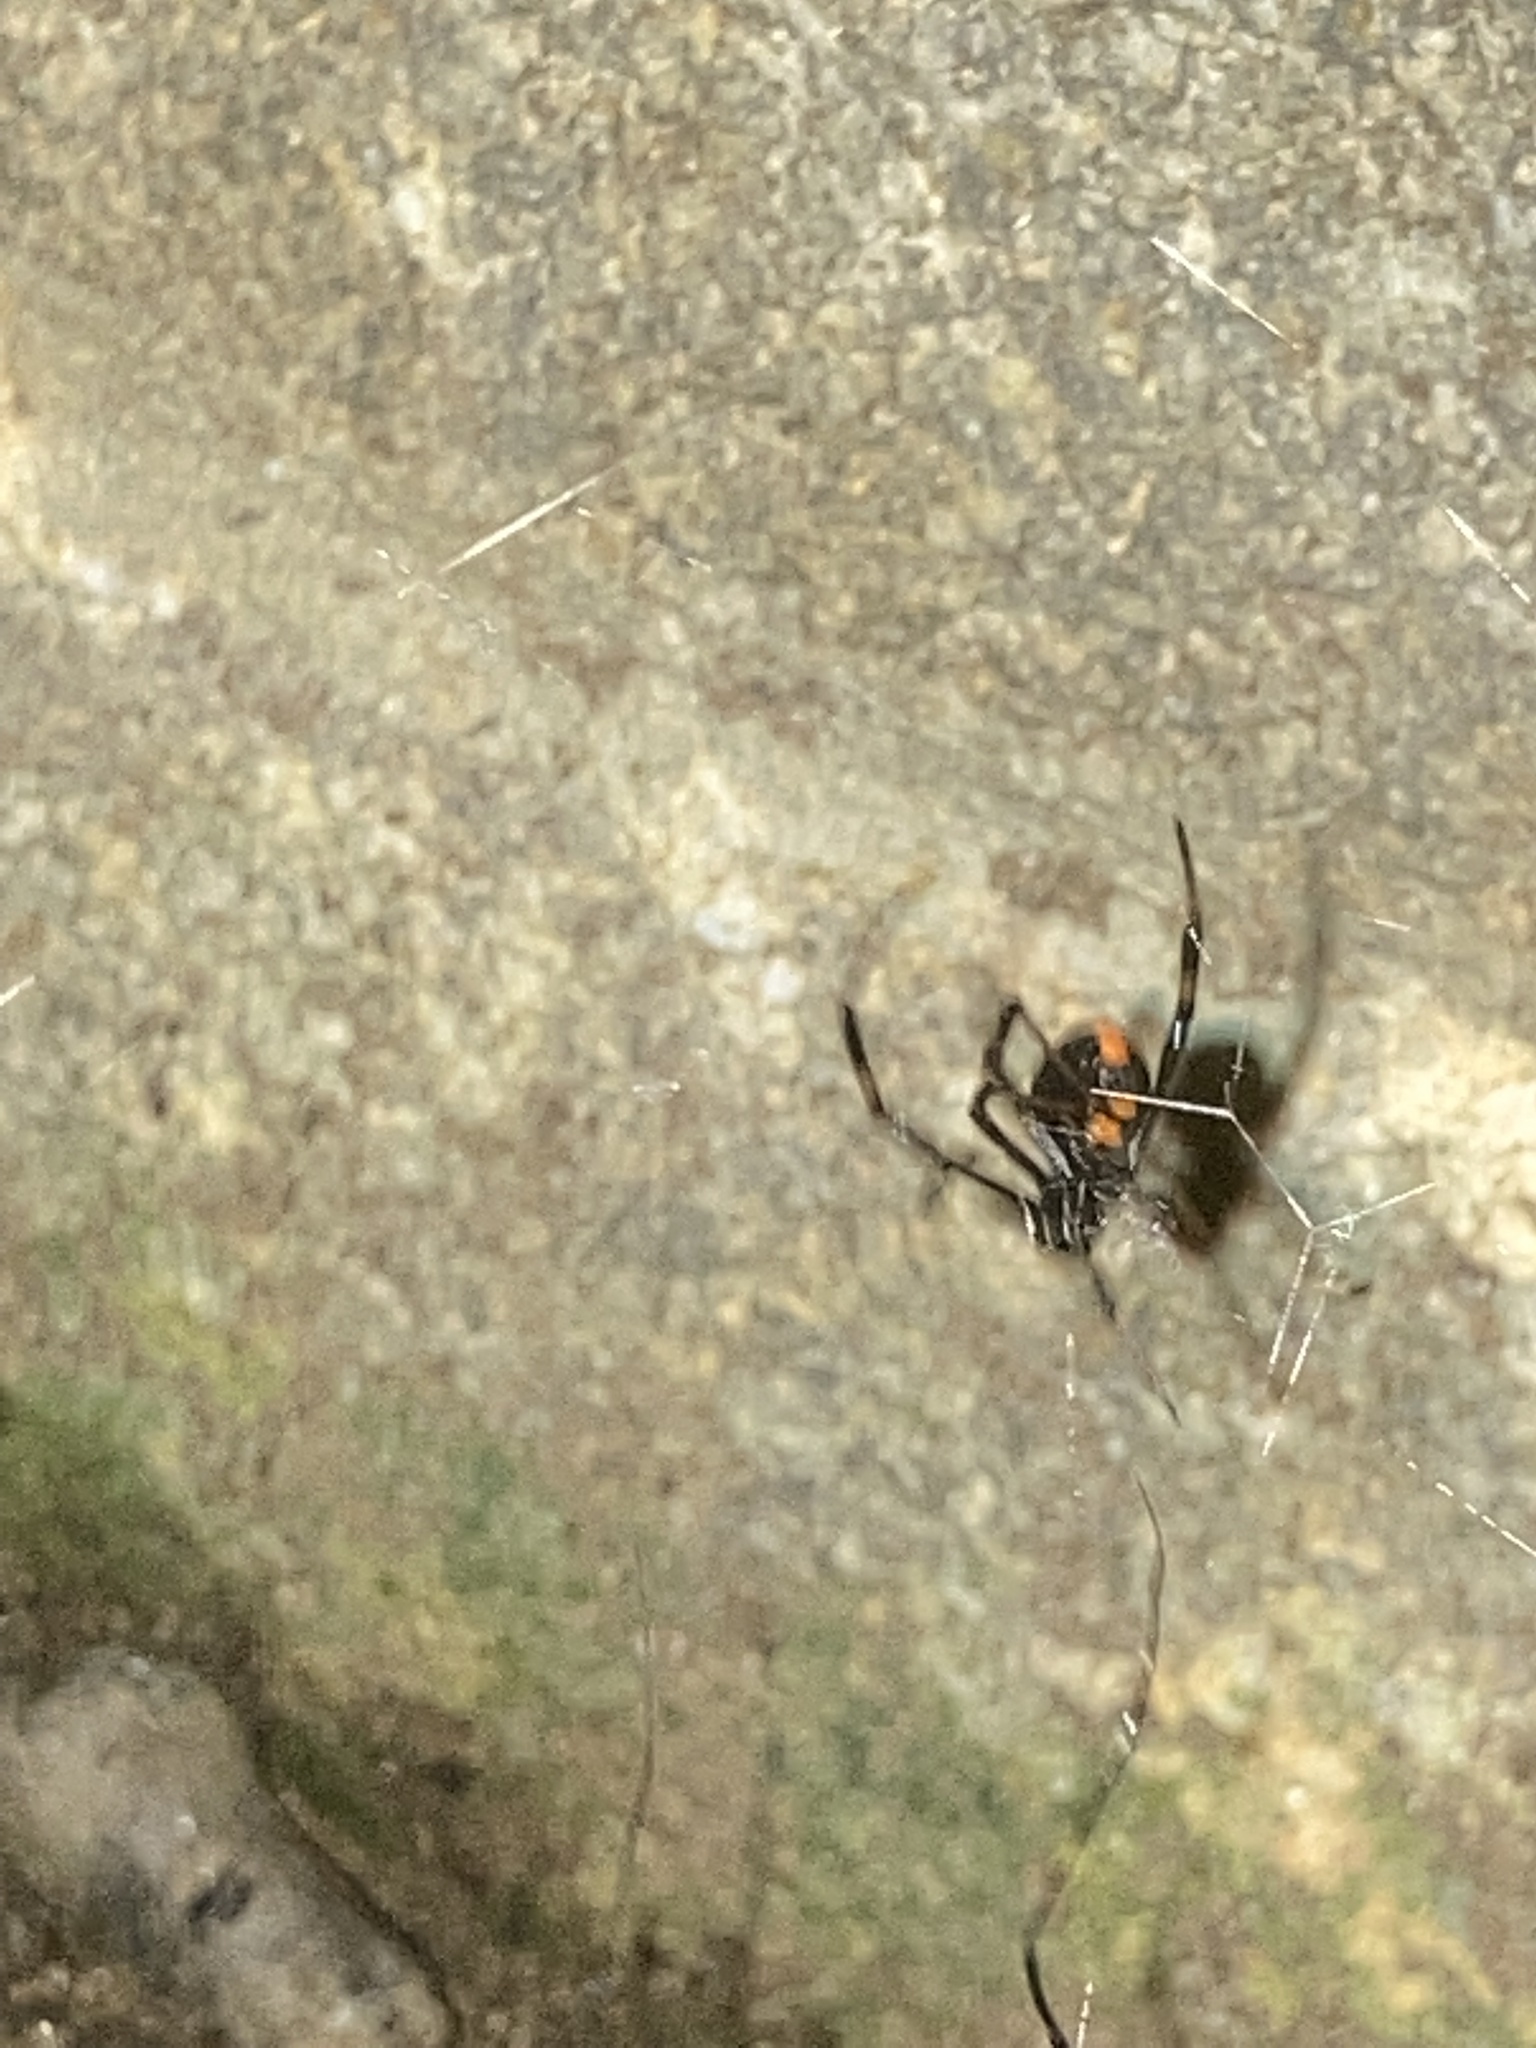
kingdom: Animalia
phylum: Arthropoda
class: Arachnida
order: Araneae
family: Theridiidae
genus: Latrodectus
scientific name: Latrodectus mactans
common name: Cobweb spiders
